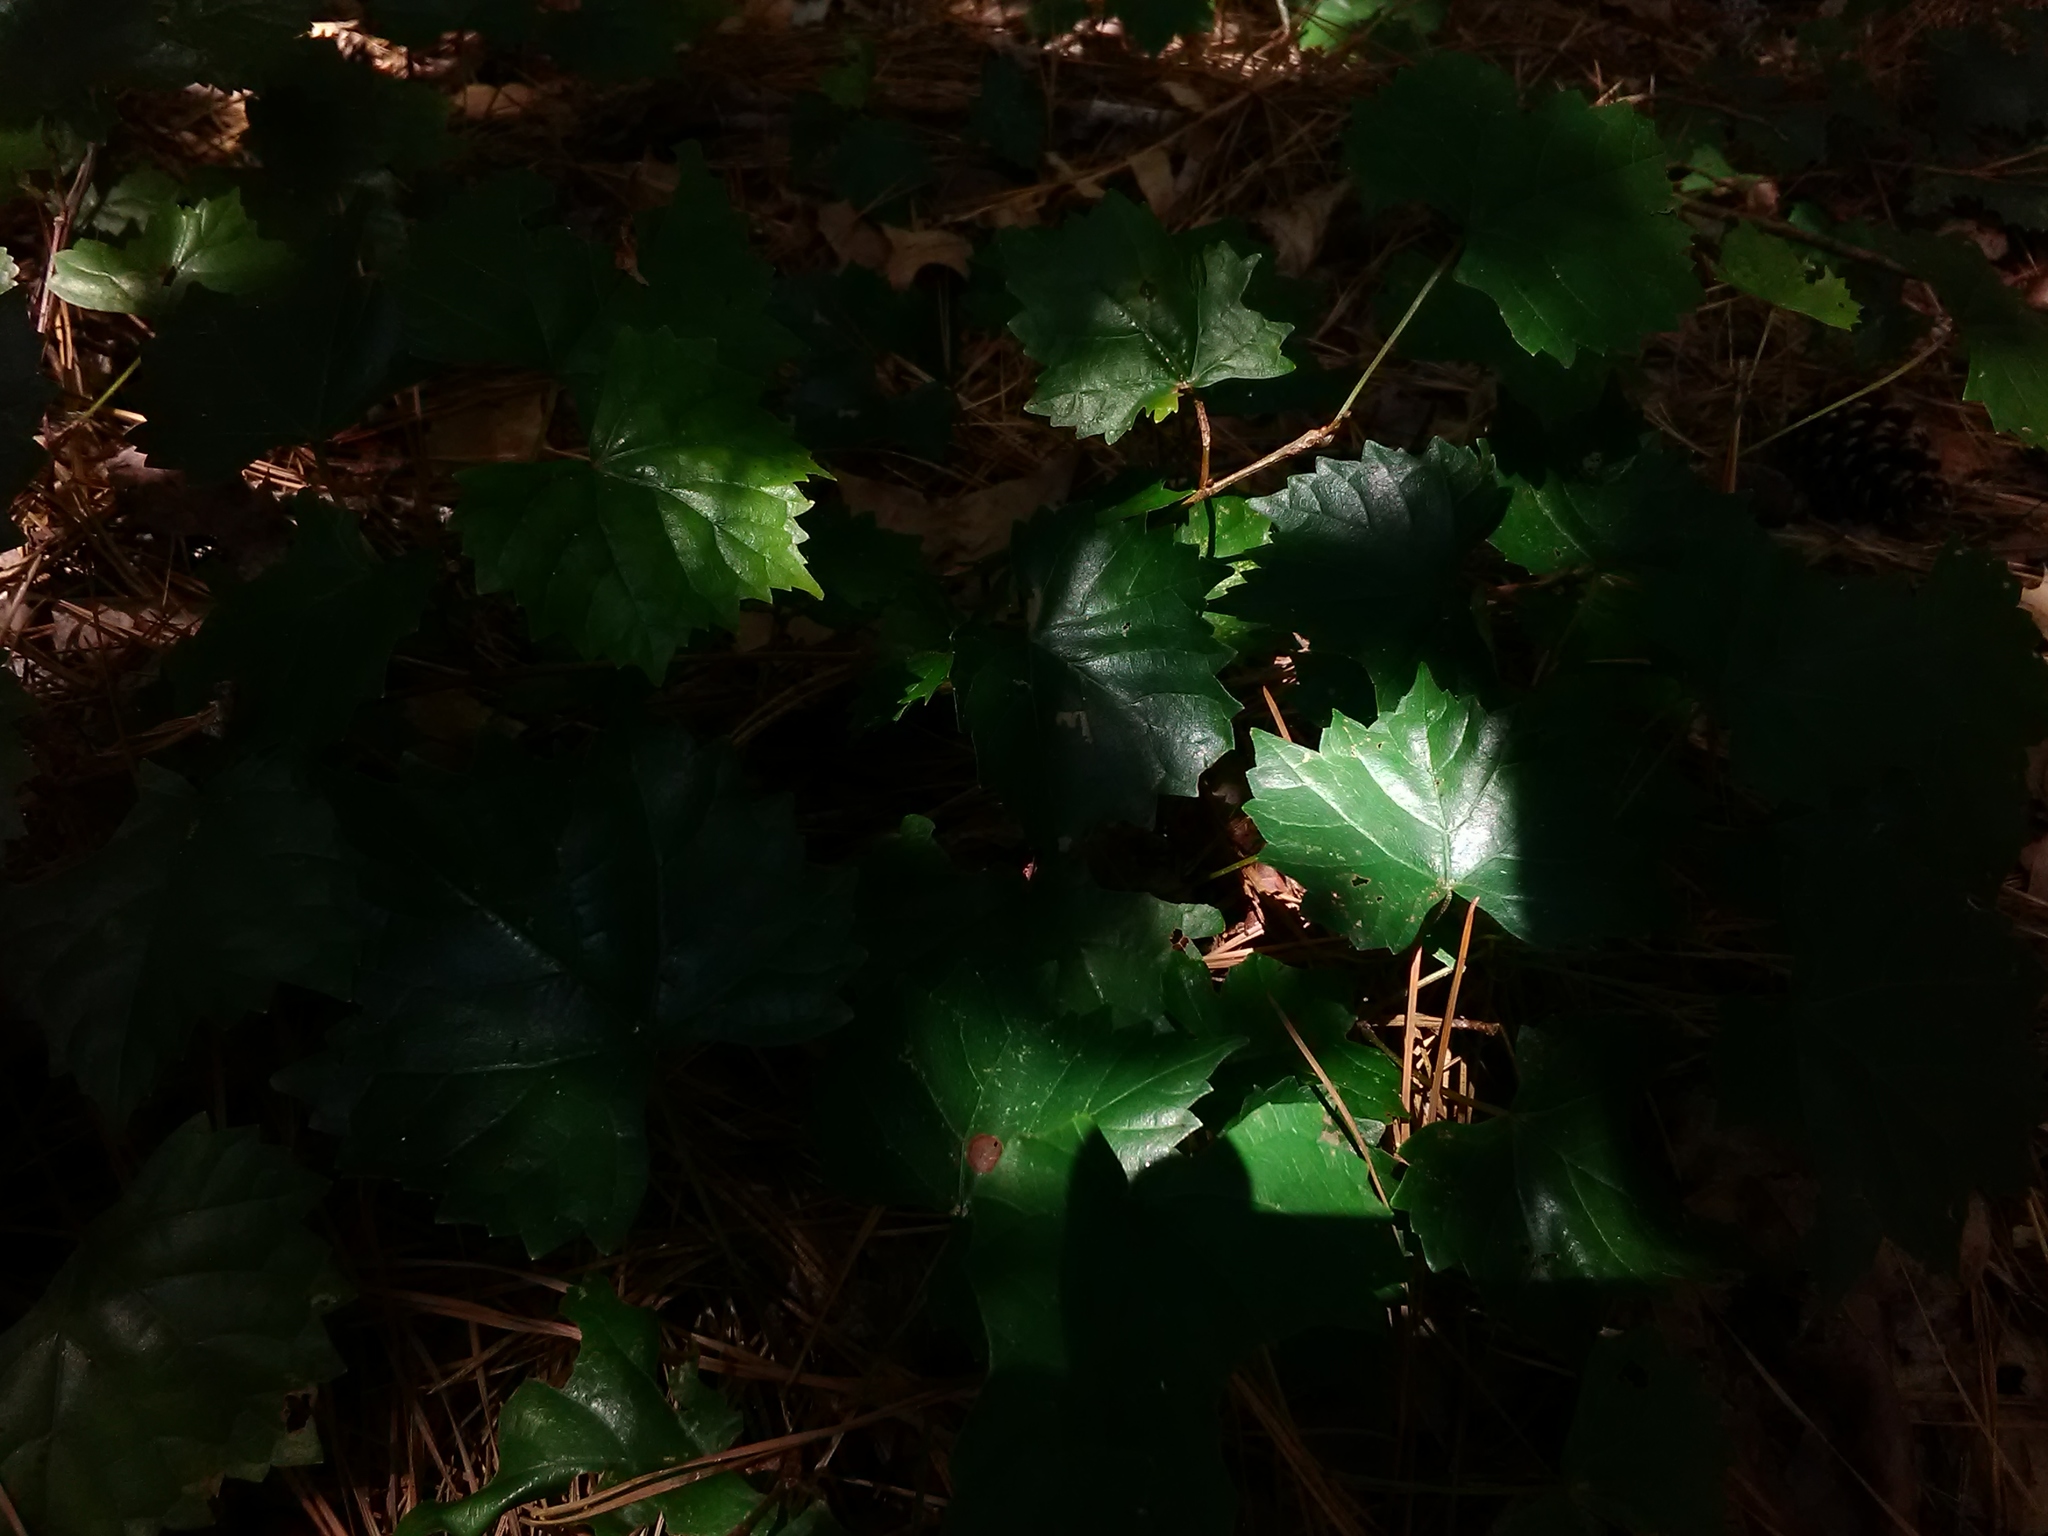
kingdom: Plantae
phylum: Tracheophyta
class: Magnoliopsida
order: Vitales
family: Vitaceae
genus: Vitis
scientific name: Vitis rotundifolia
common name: Muscadine grape
